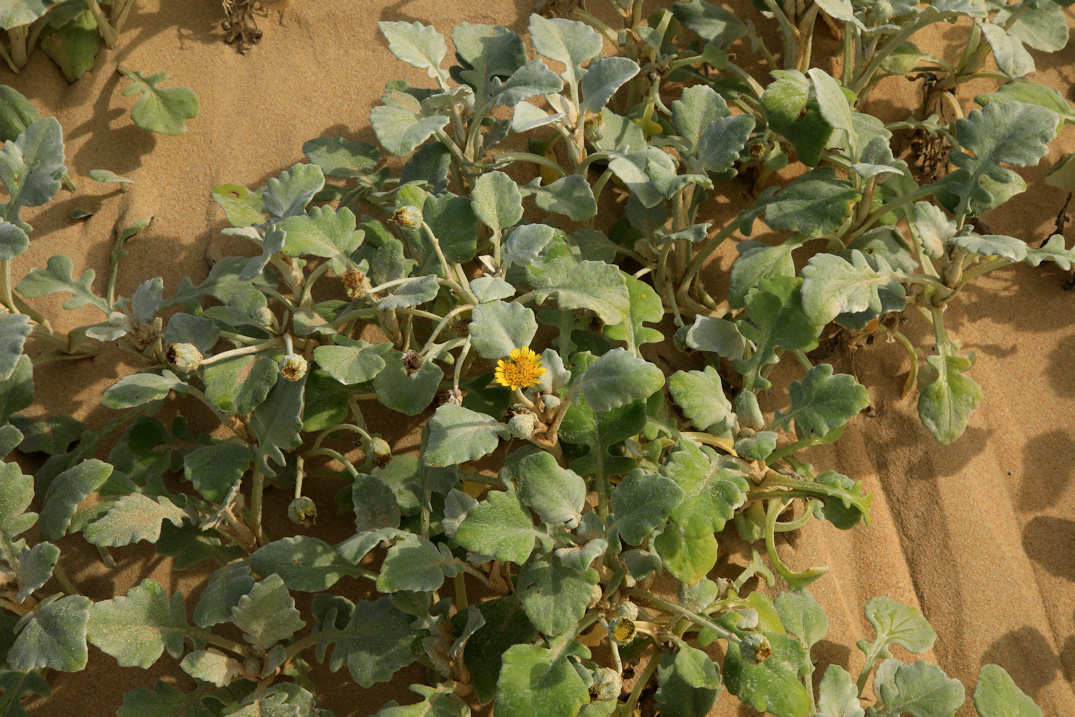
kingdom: Plantae
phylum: Tracheophyta
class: Magnoliopsida
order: Asterales
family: Asteraceae
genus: Arctotheca
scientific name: Arctotheca populifolia
